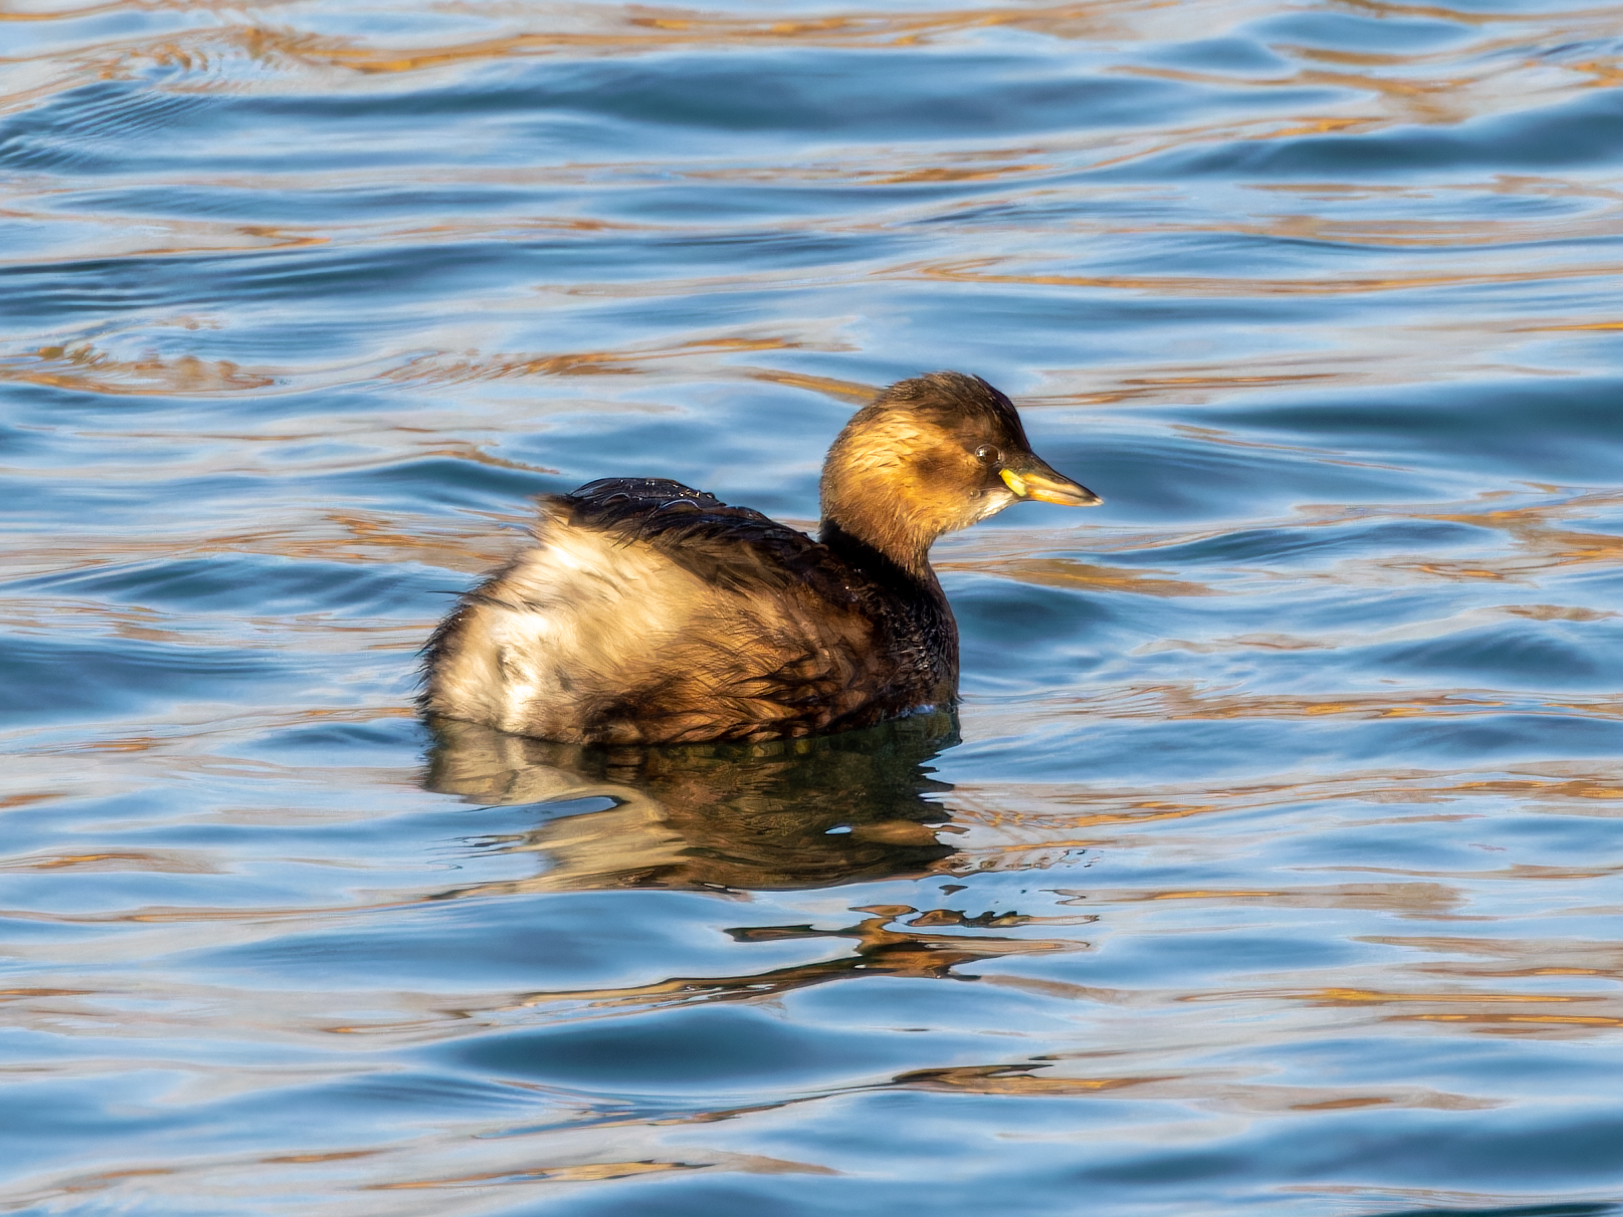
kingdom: Animalia
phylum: Chordata
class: Aves
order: Podicipediformes
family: Podicipedidae
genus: Tachybaptus
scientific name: Tachybaptus ruficollis
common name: Little grebe
